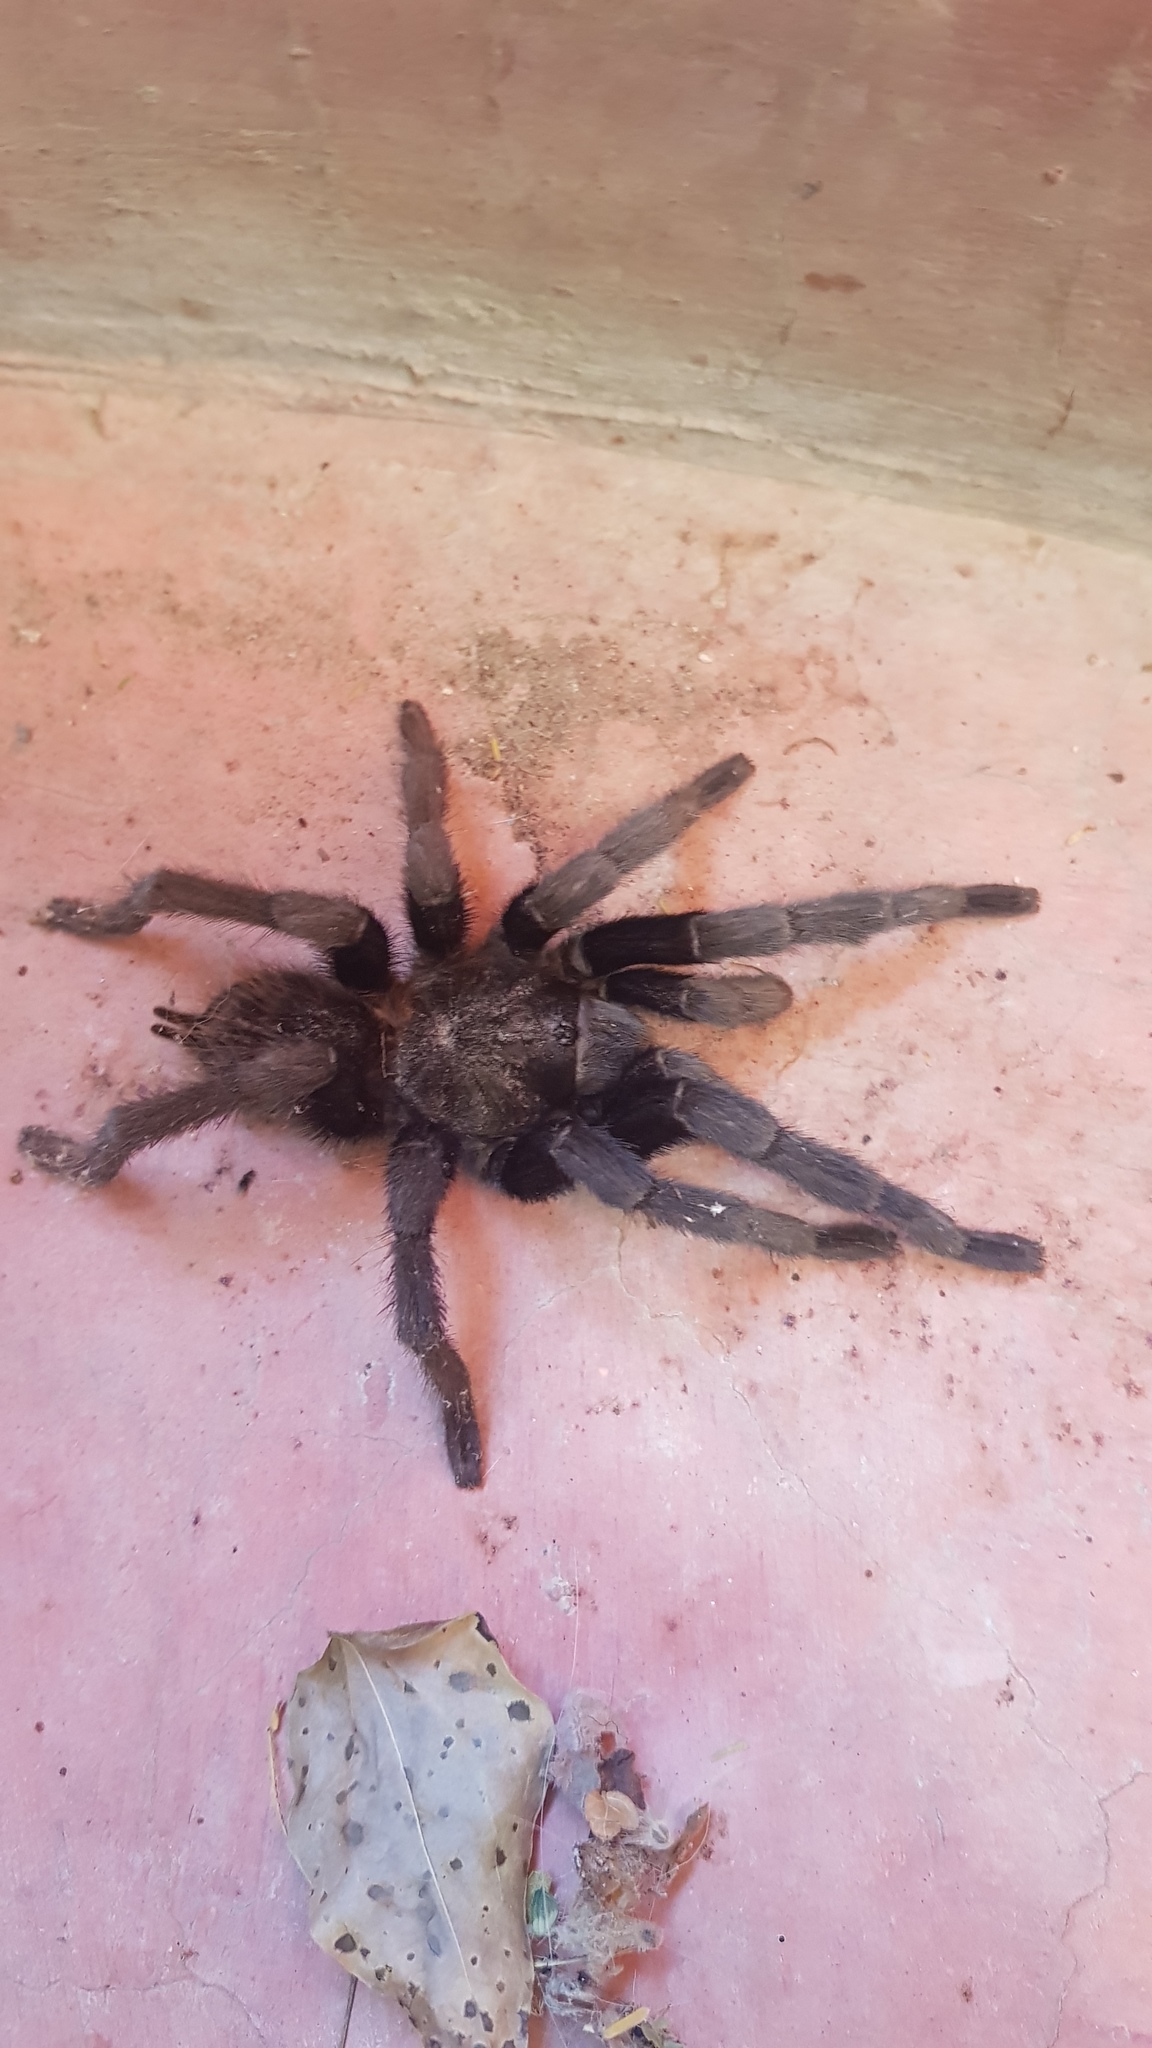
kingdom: Animalia
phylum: Arthropoda
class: Arachnida
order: Araneae
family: Theraphosidae
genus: Tliltocatl
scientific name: Tliltocatl schroederi
